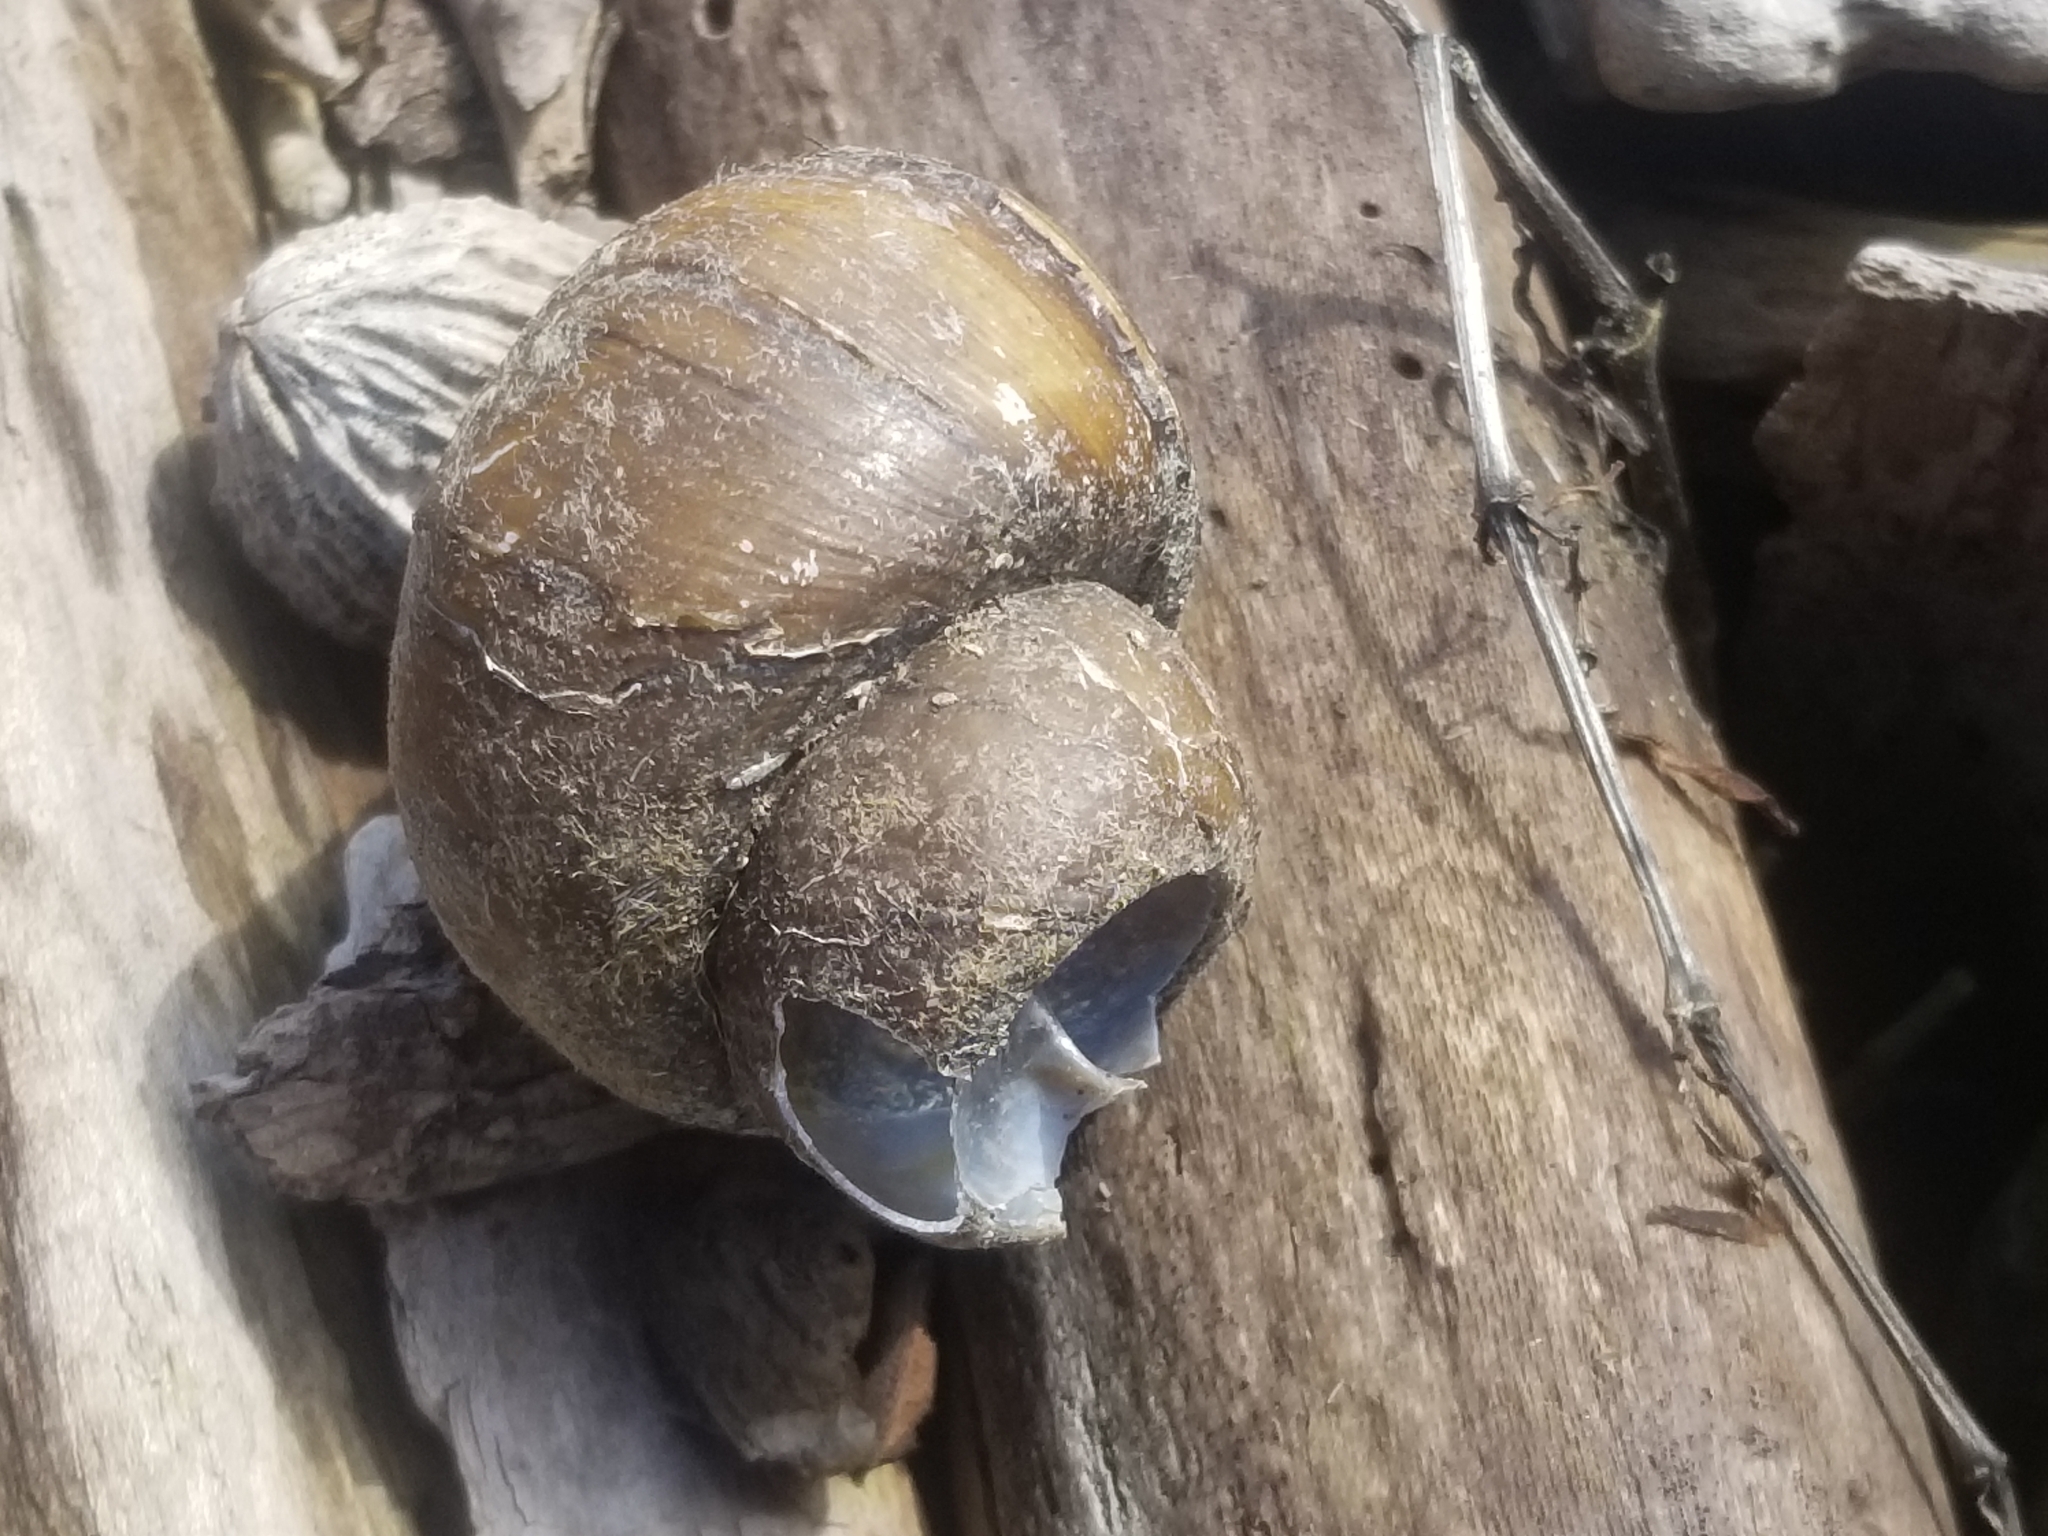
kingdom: Animalia
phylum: Mollusca
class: Gastropoda
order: Architaenioglossa
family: Viviparidae
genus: Cipangopaludina
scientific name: Cipangopaludina chinensis
